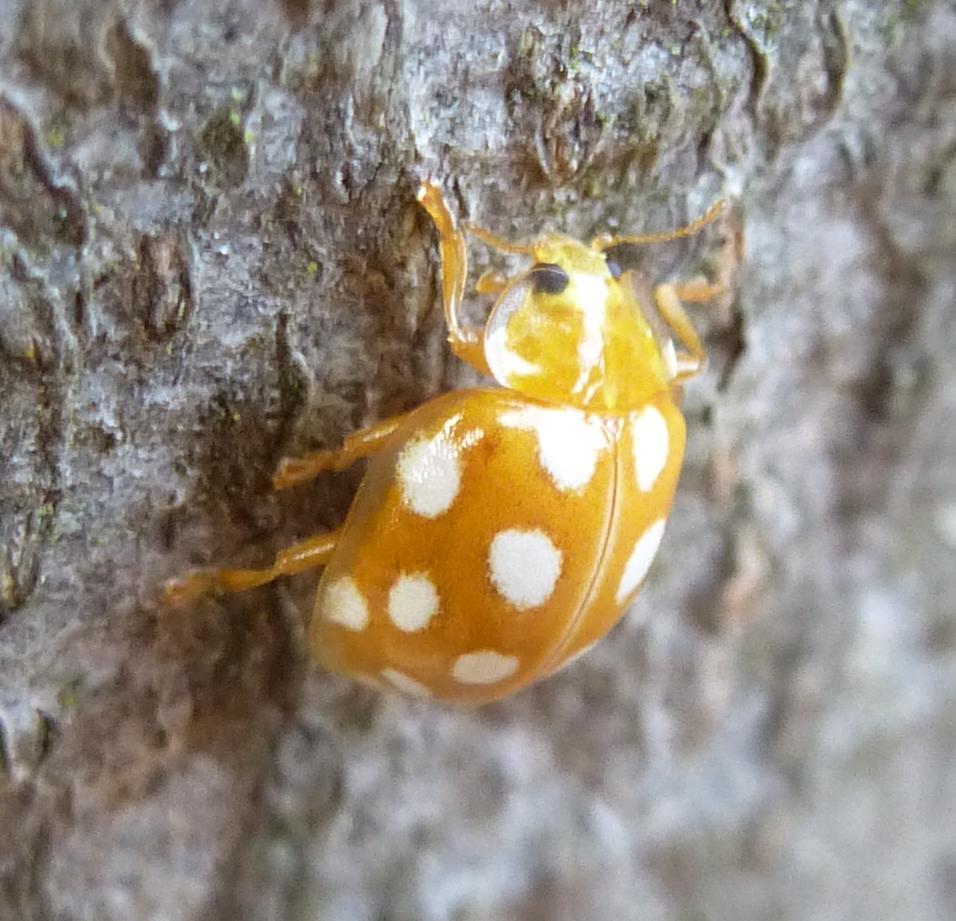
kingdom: Animalia
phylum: Arthropoda
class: Insecta
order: Coleoptera
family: Coccinellidae
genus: Halyzia
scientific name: Halyzia sedecimguttata
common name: Orange ladybird
